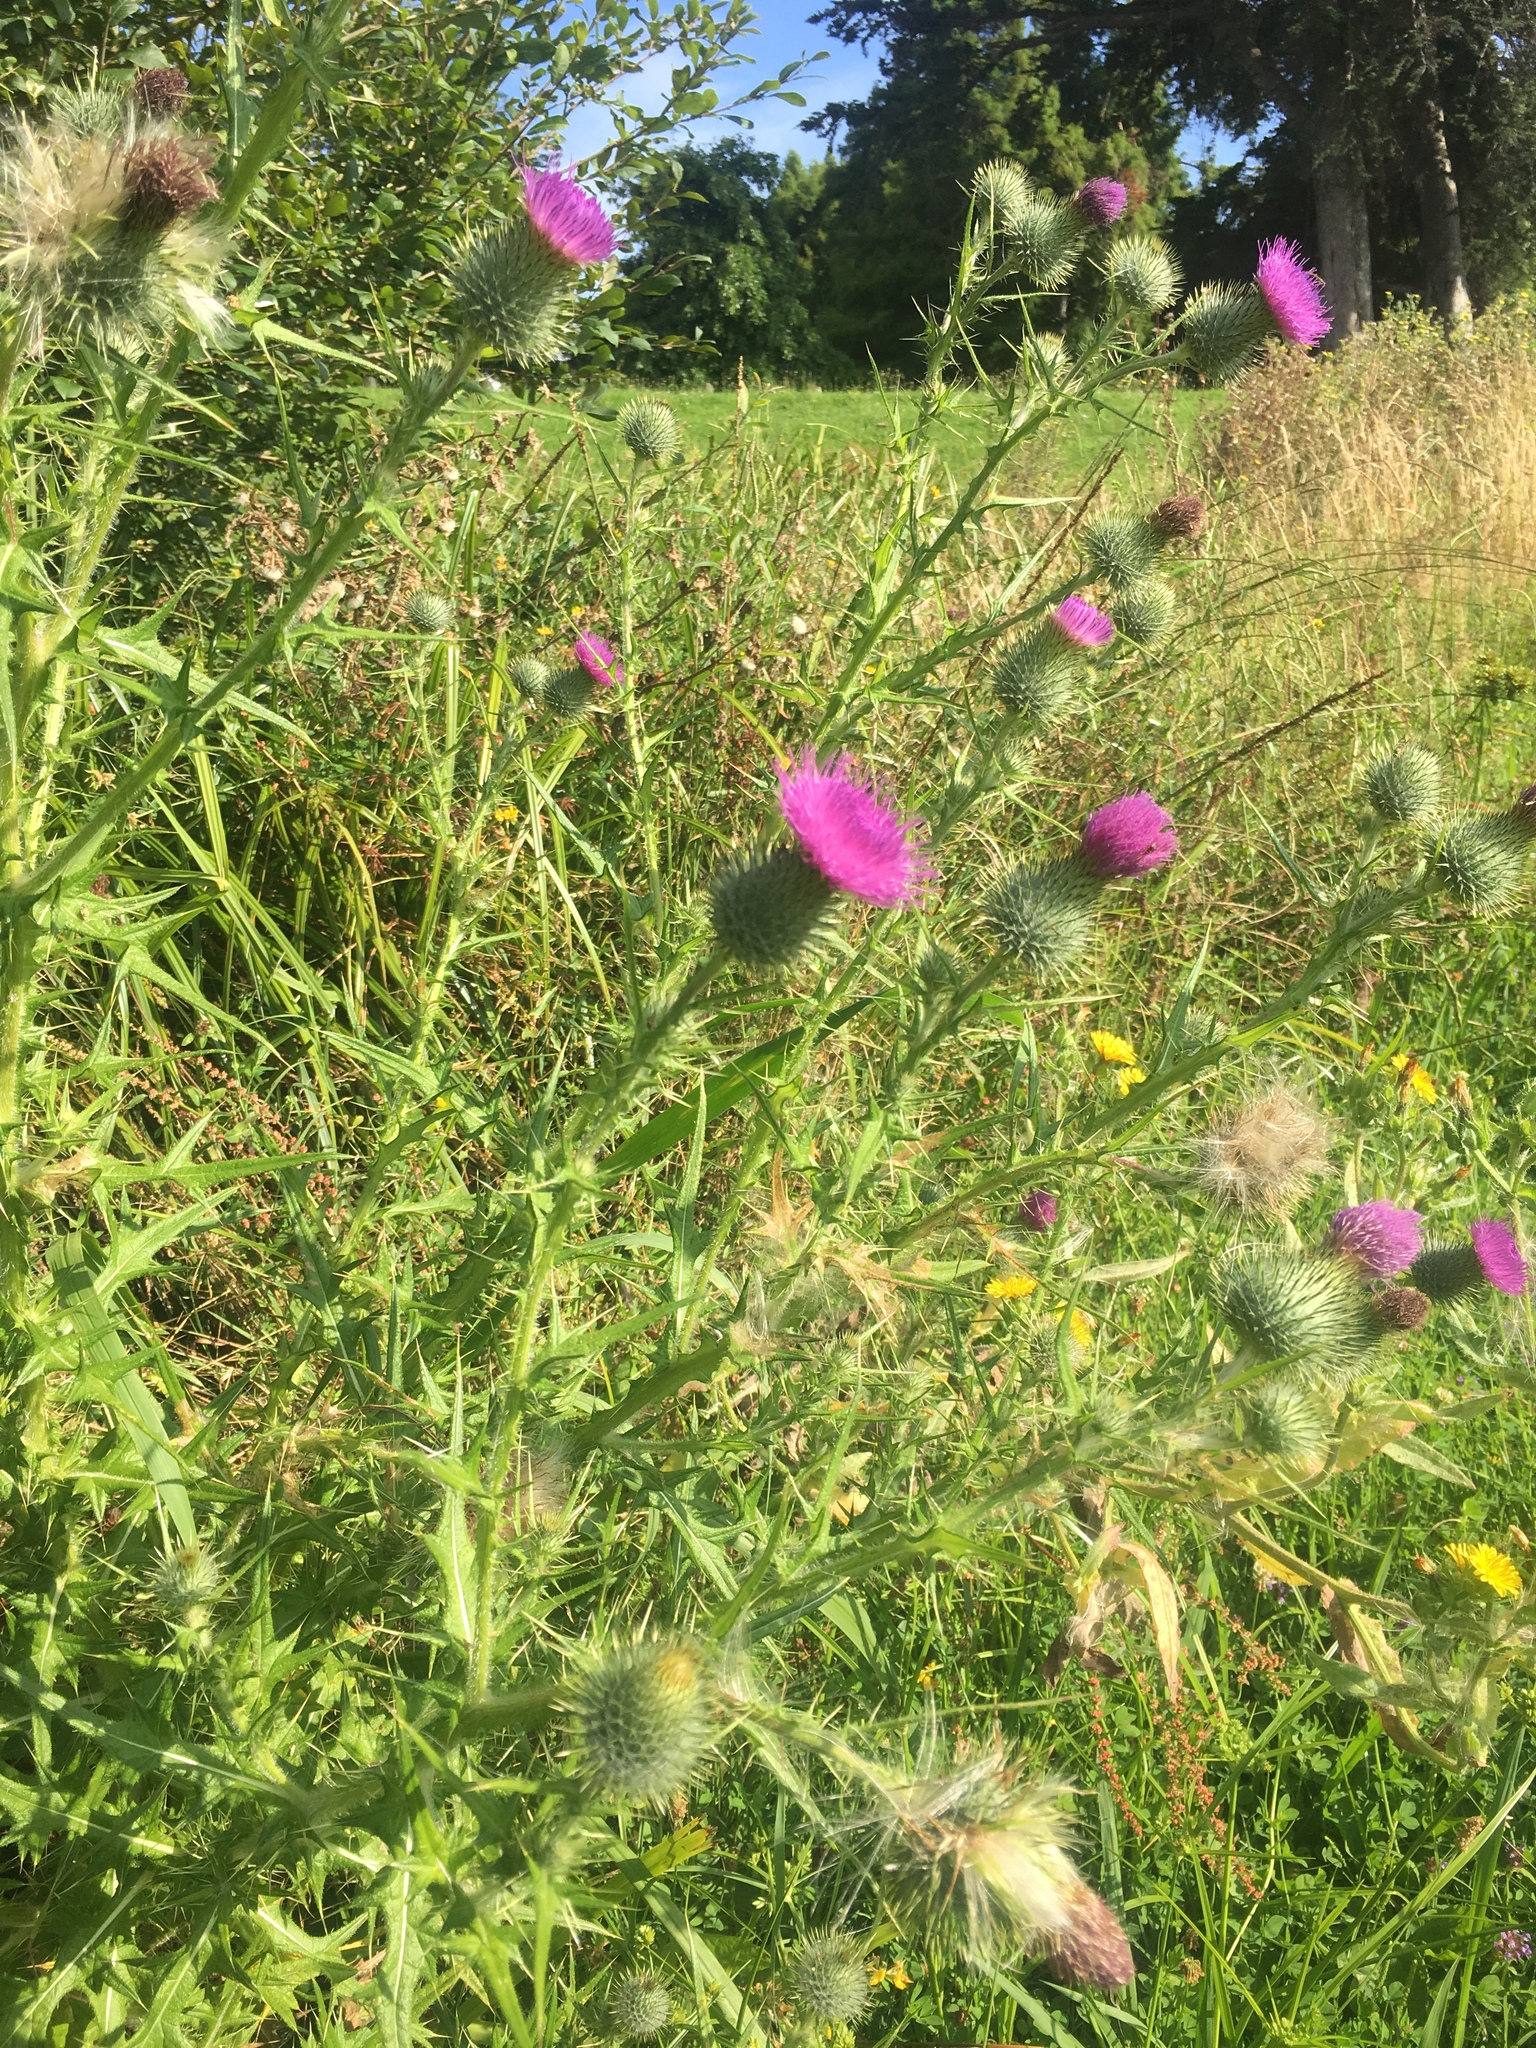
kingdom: Plantae
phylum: Tracheophyta
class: Magnoliopsida
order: Asterales
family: Asteraceae
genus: Cirsium
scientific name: Cirsium vulgare
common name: Bull thistle
